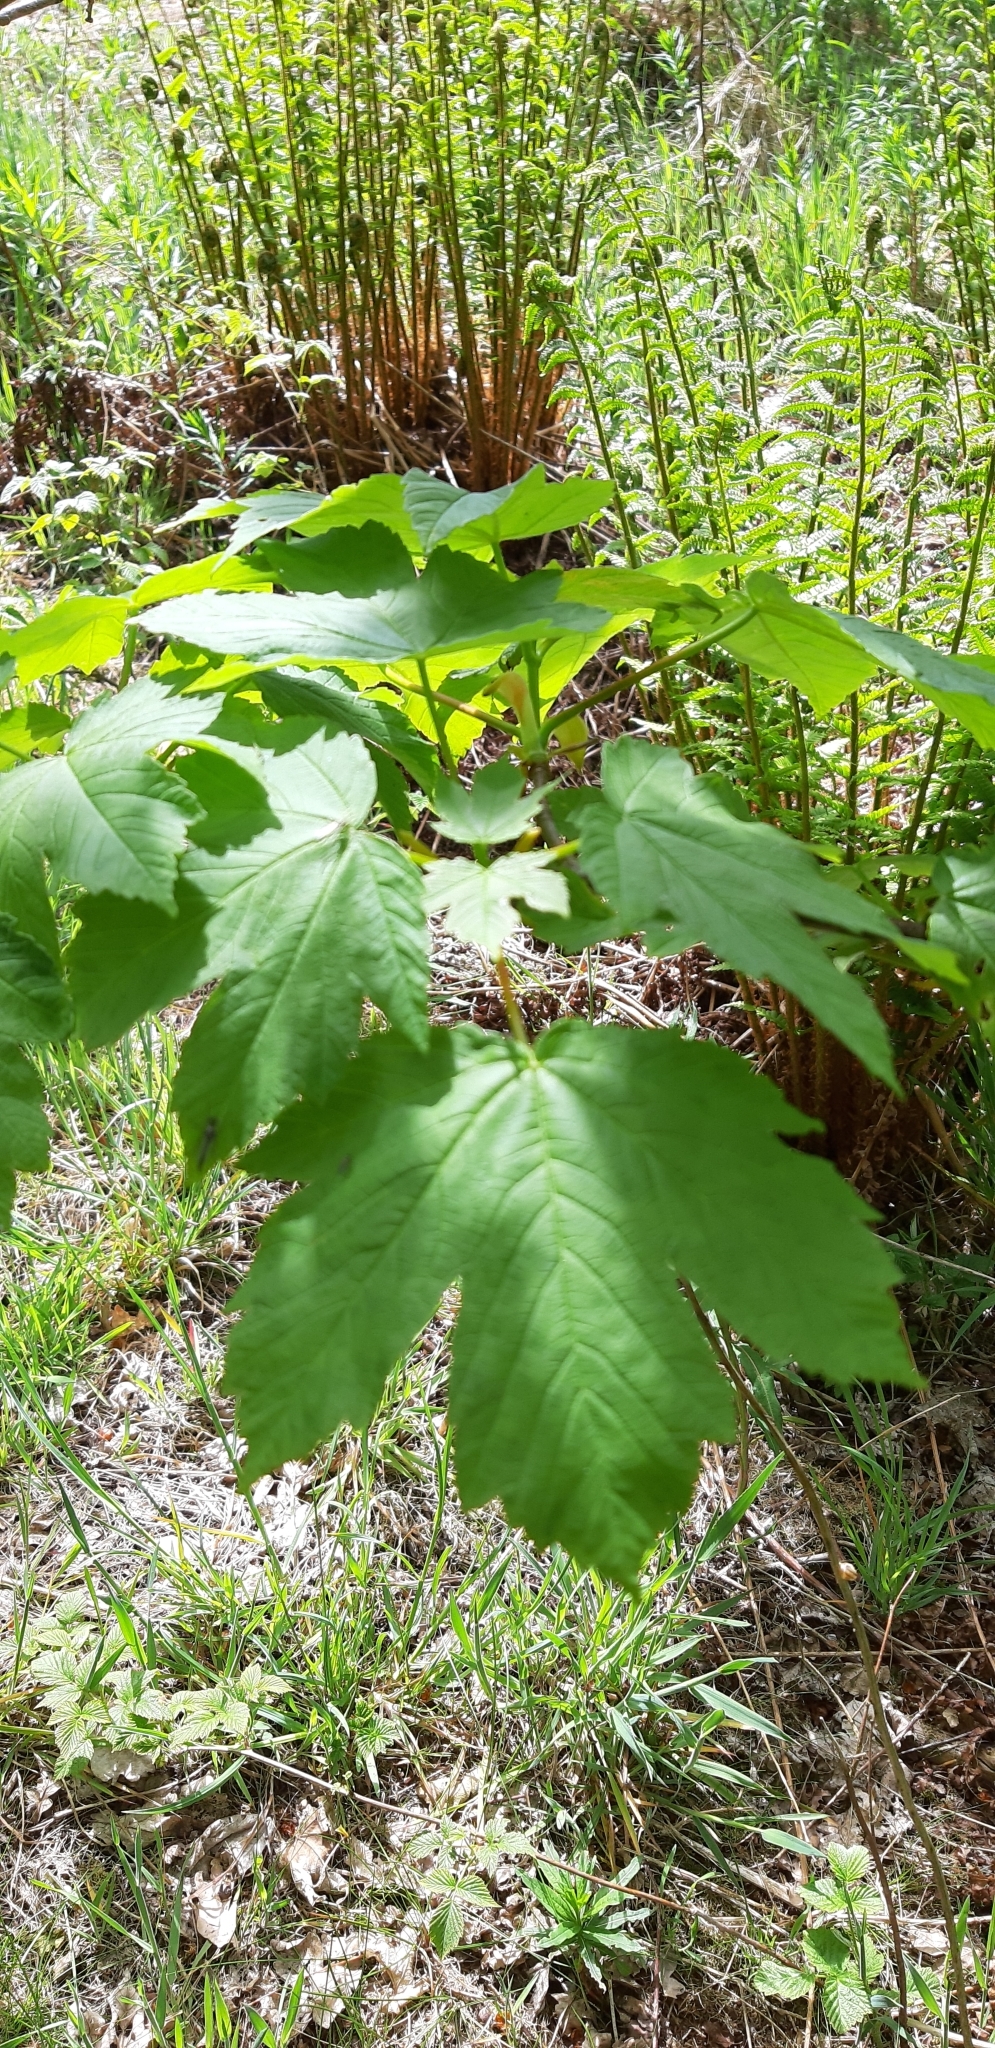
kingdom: Plantae
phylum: Tracheophyta
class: Magnoliopsida
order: Sapindales
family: Sapindaceae
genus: Acer
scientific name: Acer pseudoplatanus
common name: Sycamore
